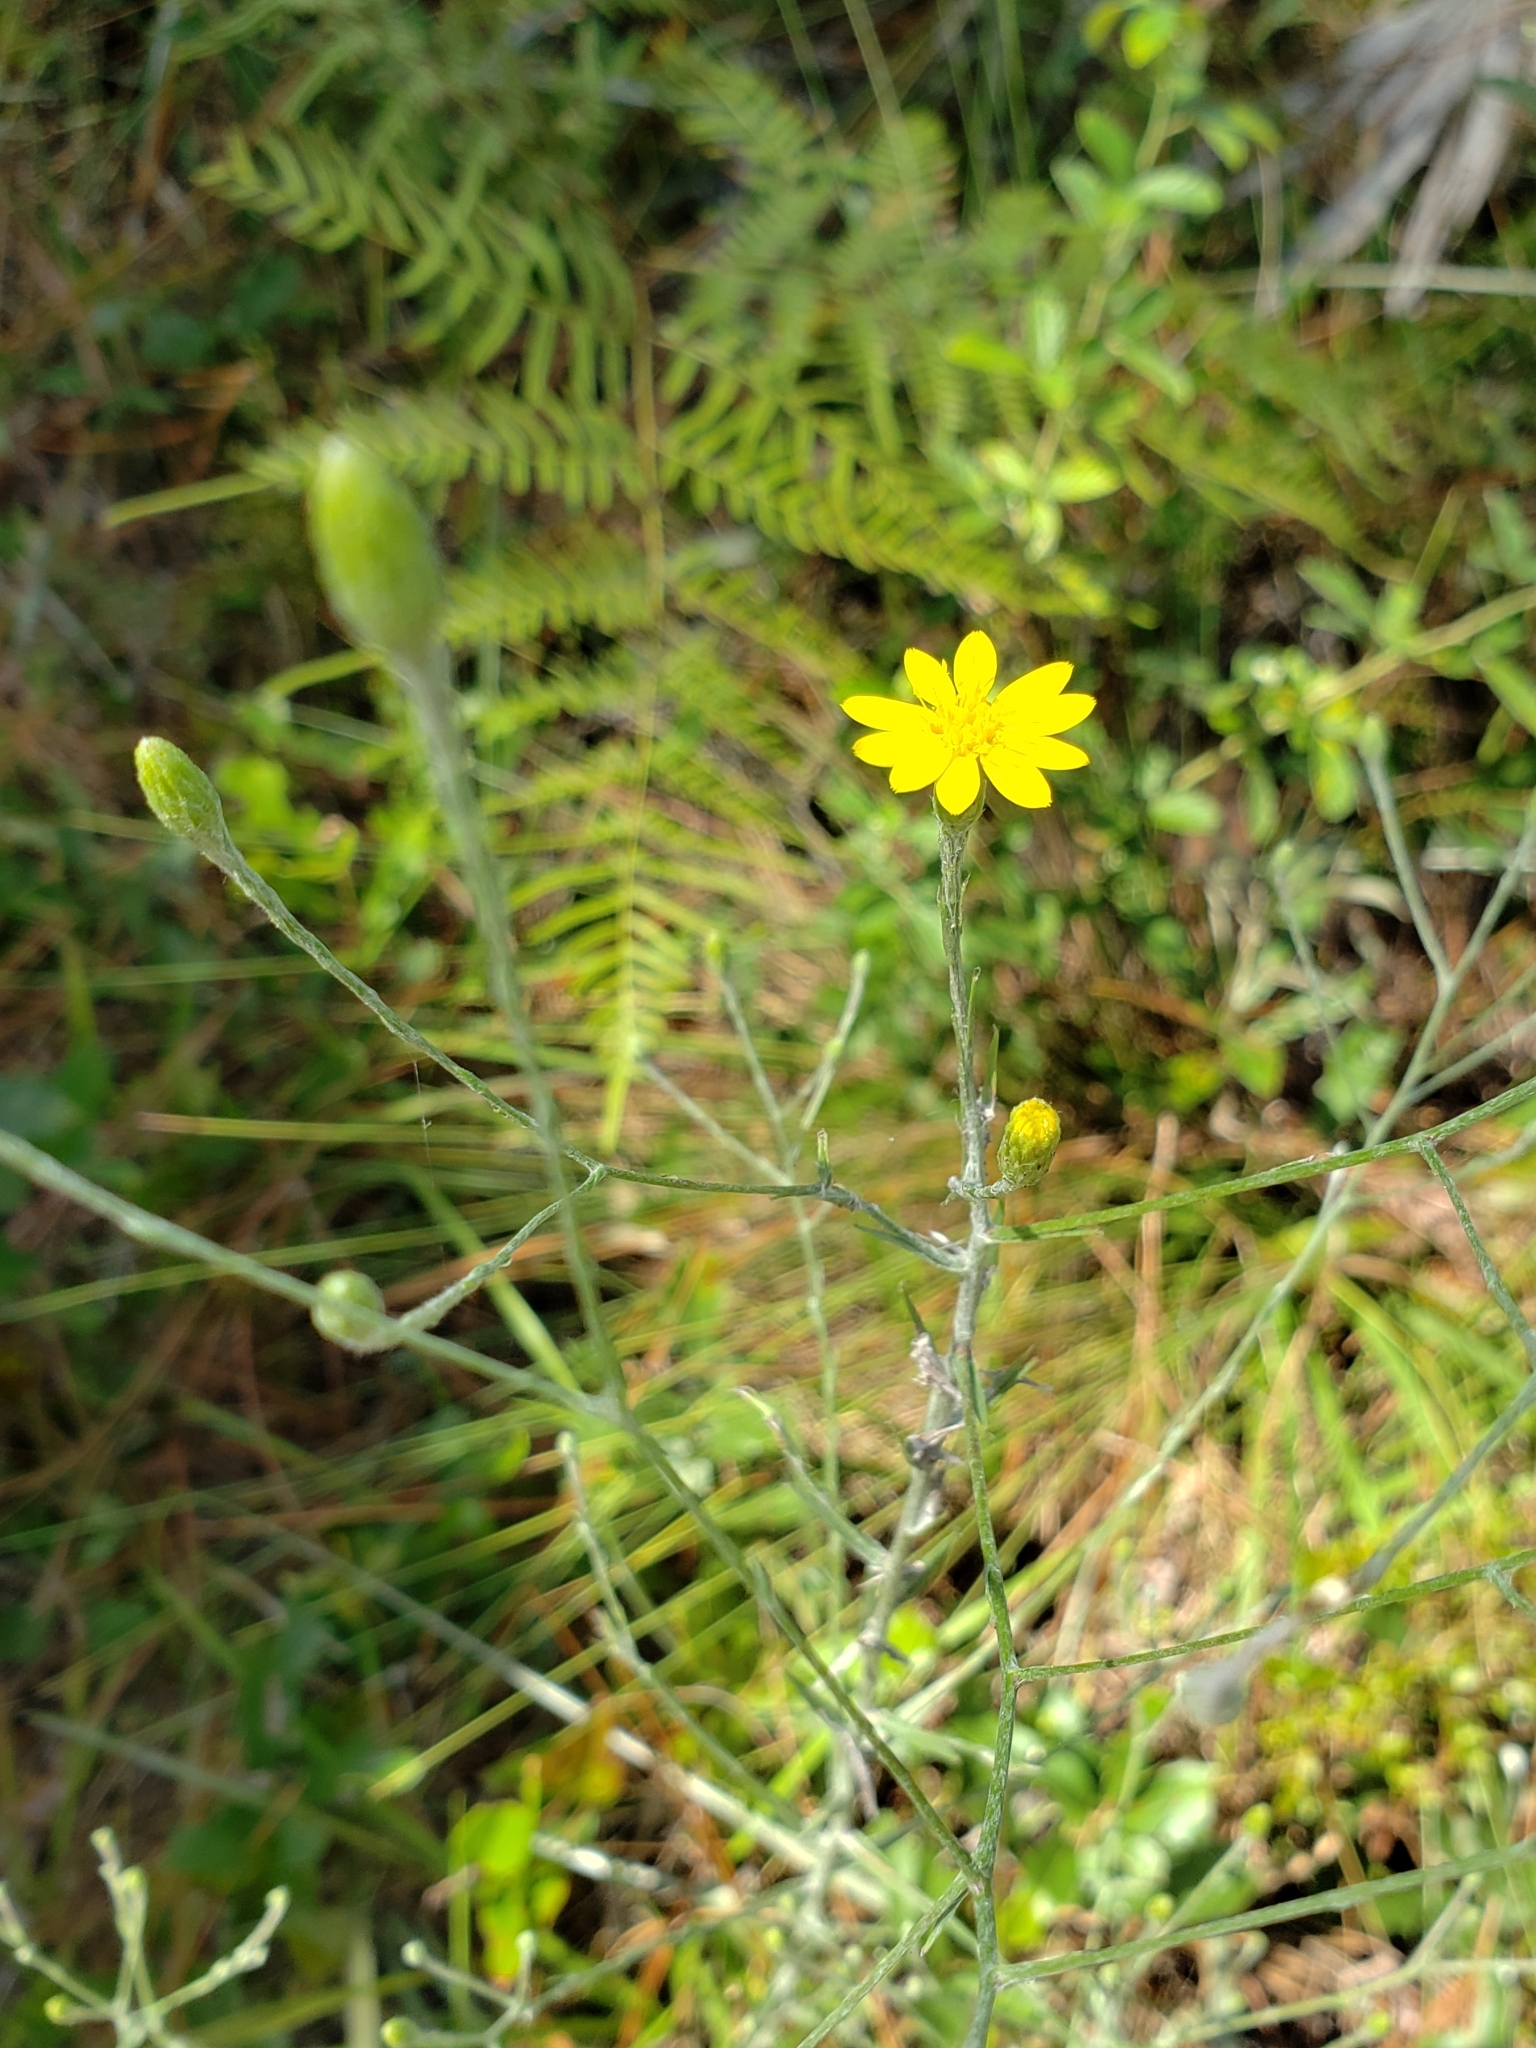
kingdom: Plantae
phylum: Tracheophyta
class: Magnoliopsida
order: Asterales
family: Asteraceae
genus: Pityopsis
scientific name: Pityopsis graminifolia
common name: Grass-leaf golden-aster
